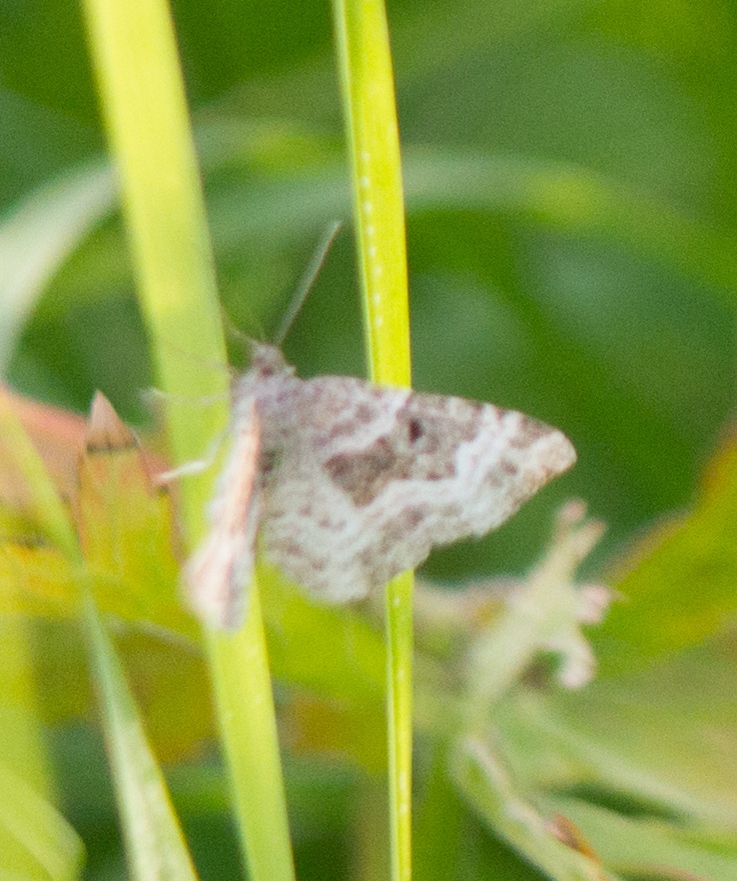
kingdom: Animalia
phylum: Arthropoda
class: Insecta
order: Lepidoptera
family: Geometridae
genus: Epirrhoe
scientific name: Epirrhoe alternata
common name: Common carpet
